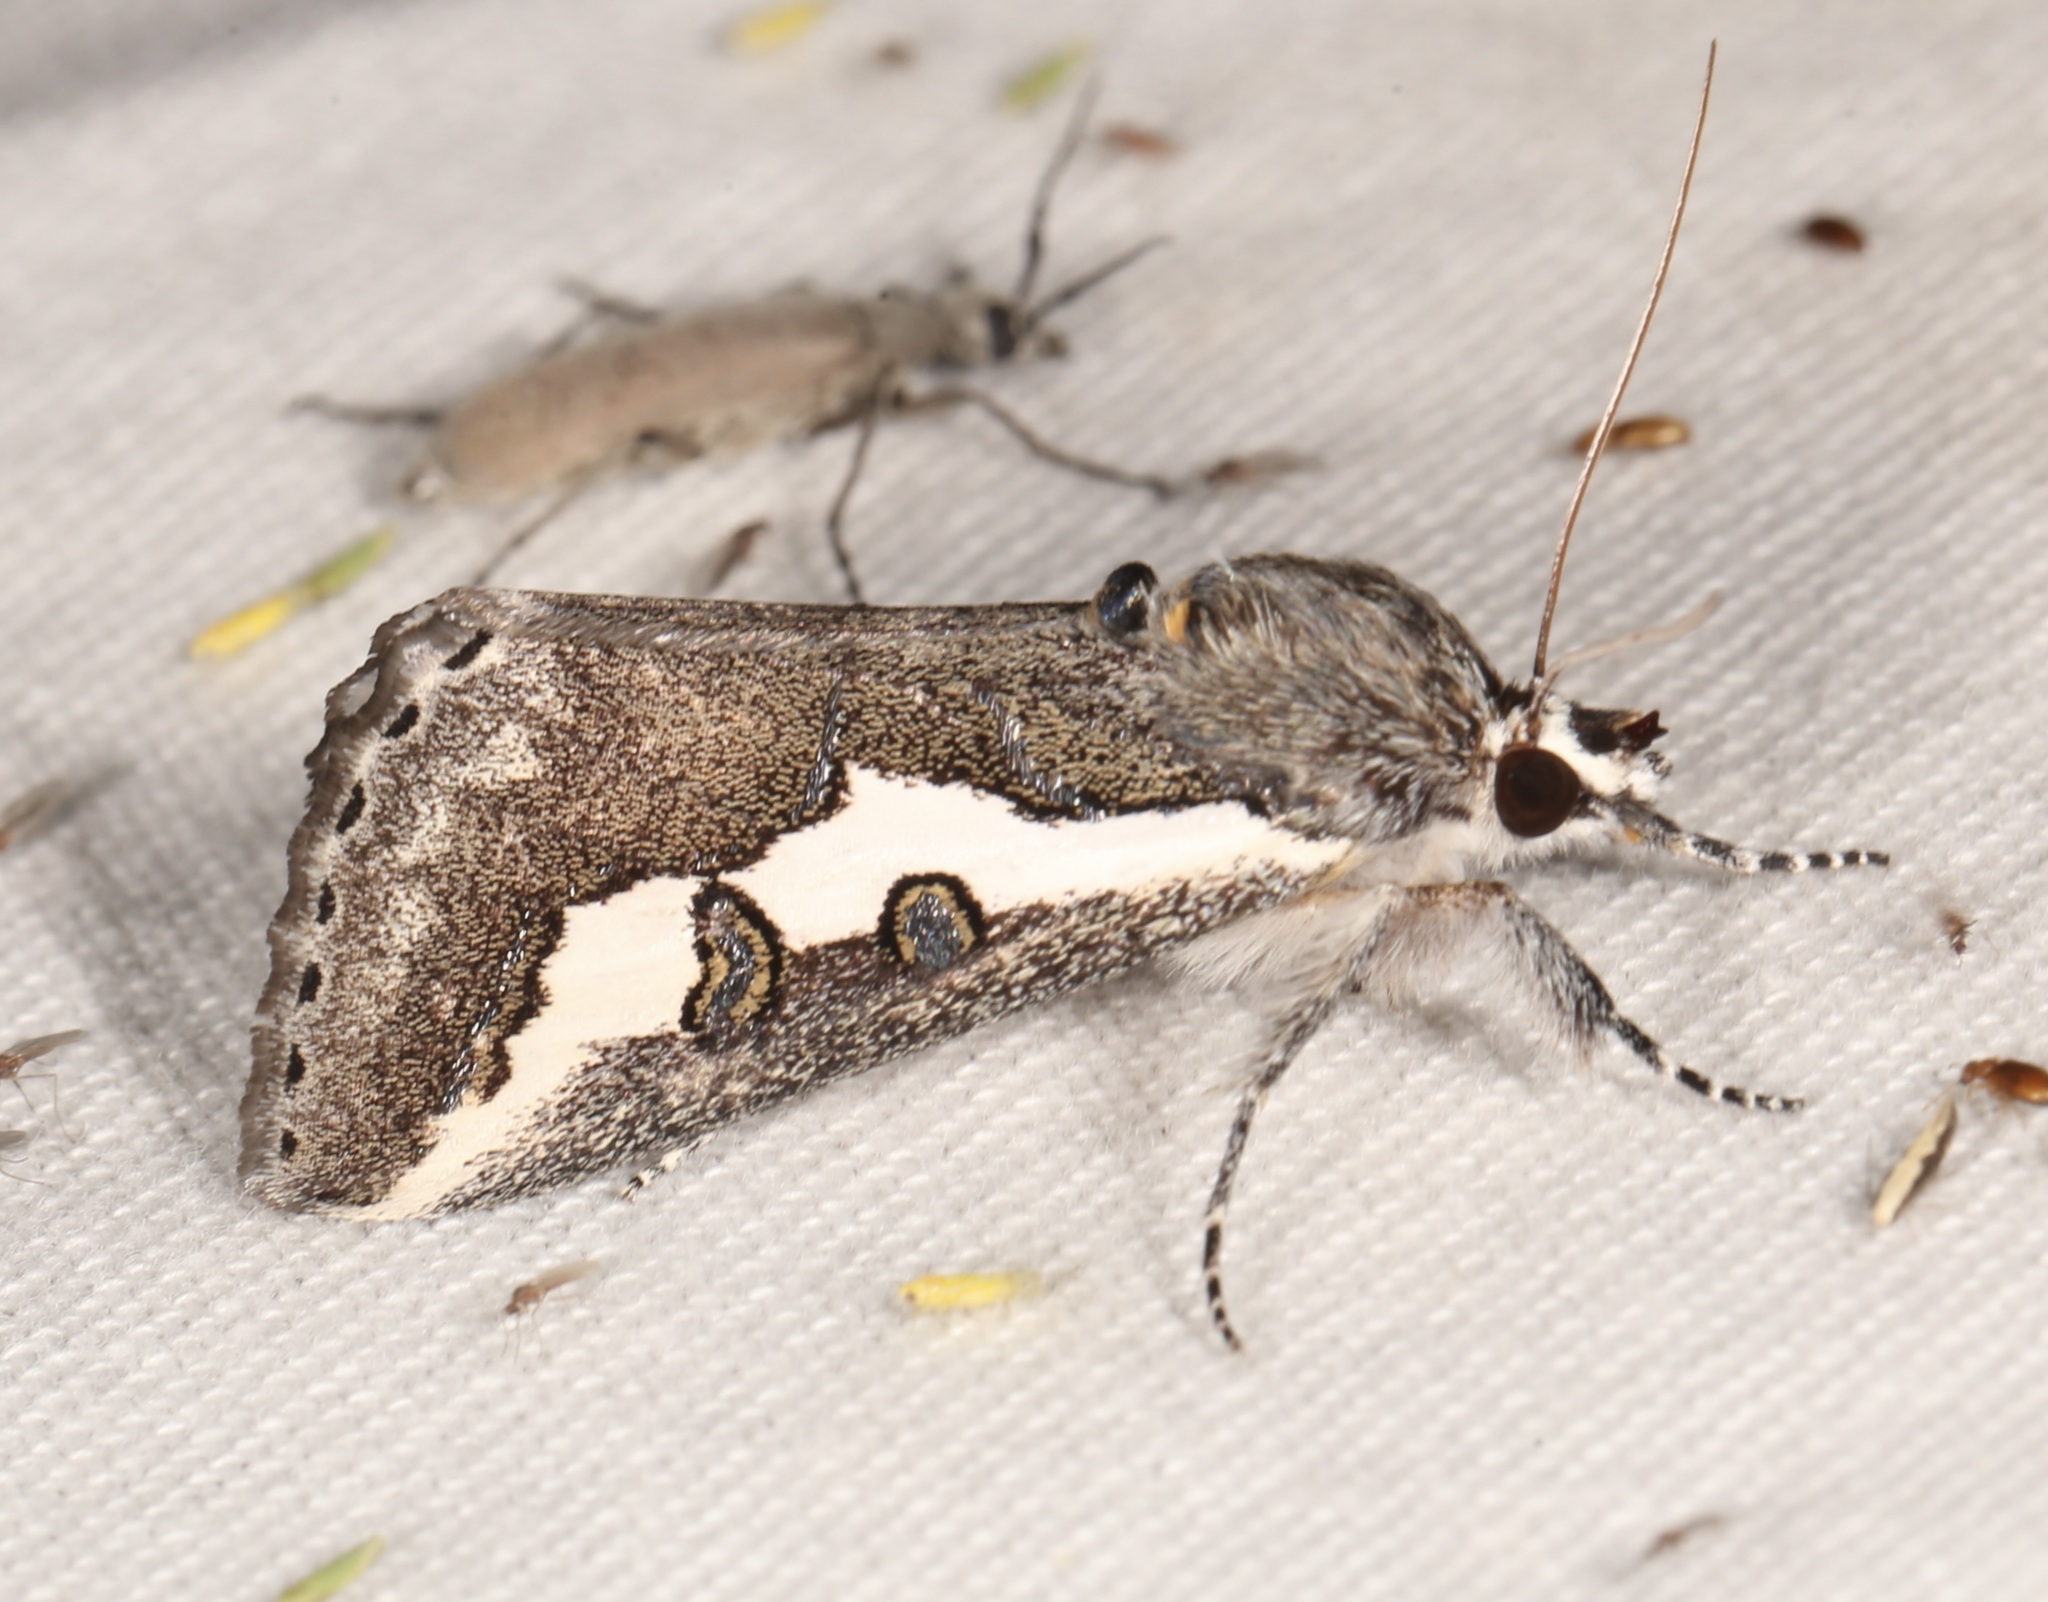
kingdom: Animalia
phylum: Arthropoda
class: Insecta
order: Lepidoptera
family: Noctuidae
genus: Euscirrhopterus
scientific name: Euscirrhopterus gloveri
